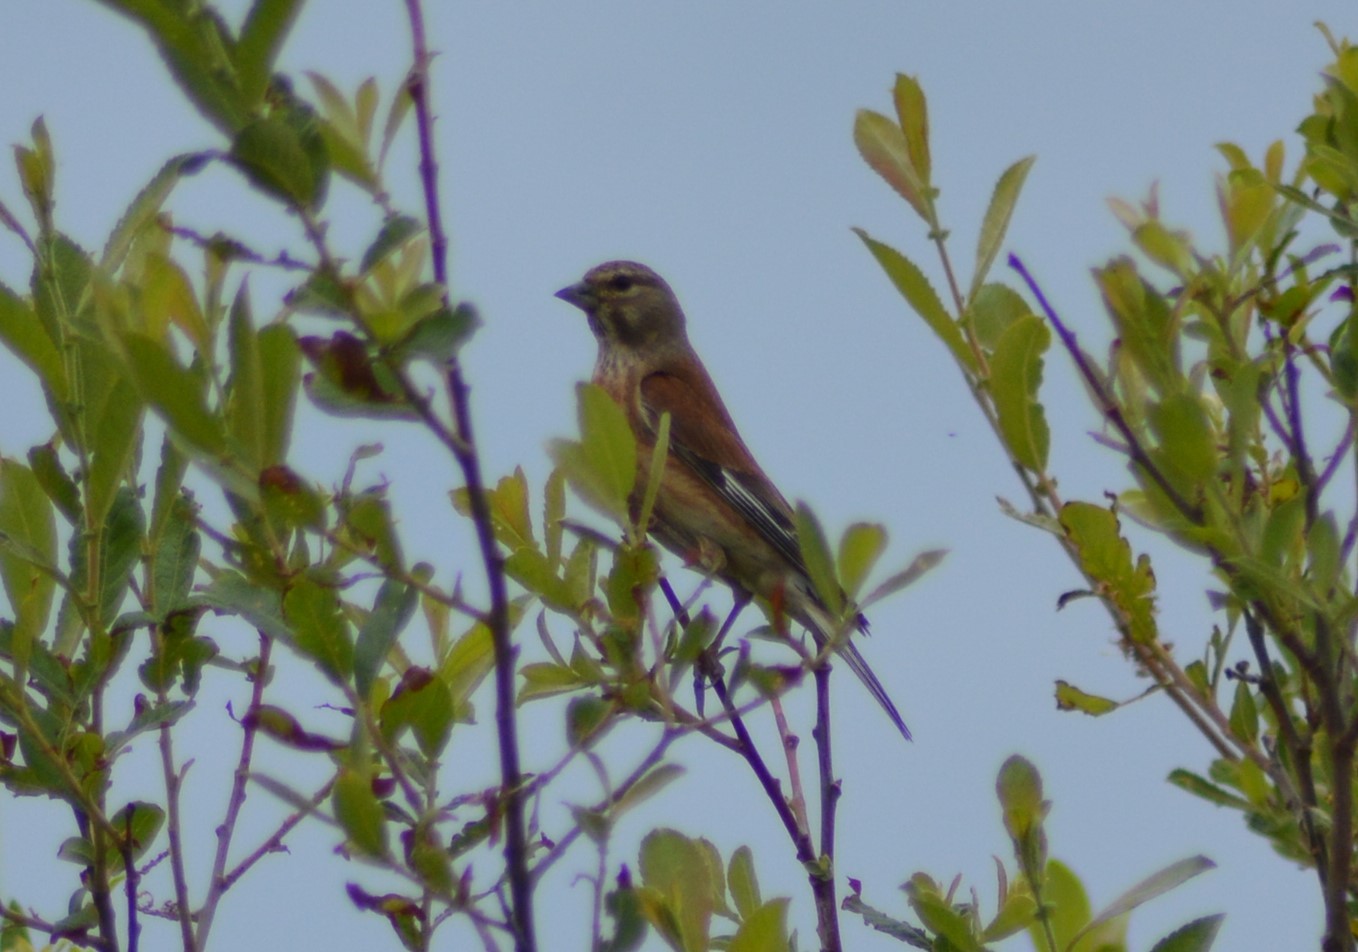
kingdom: Animalia
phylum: Chordata
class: Aves
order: Passeriformes
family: Fringillidae
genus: Linaria
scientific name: Linaria cannabina
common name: Common linnet
